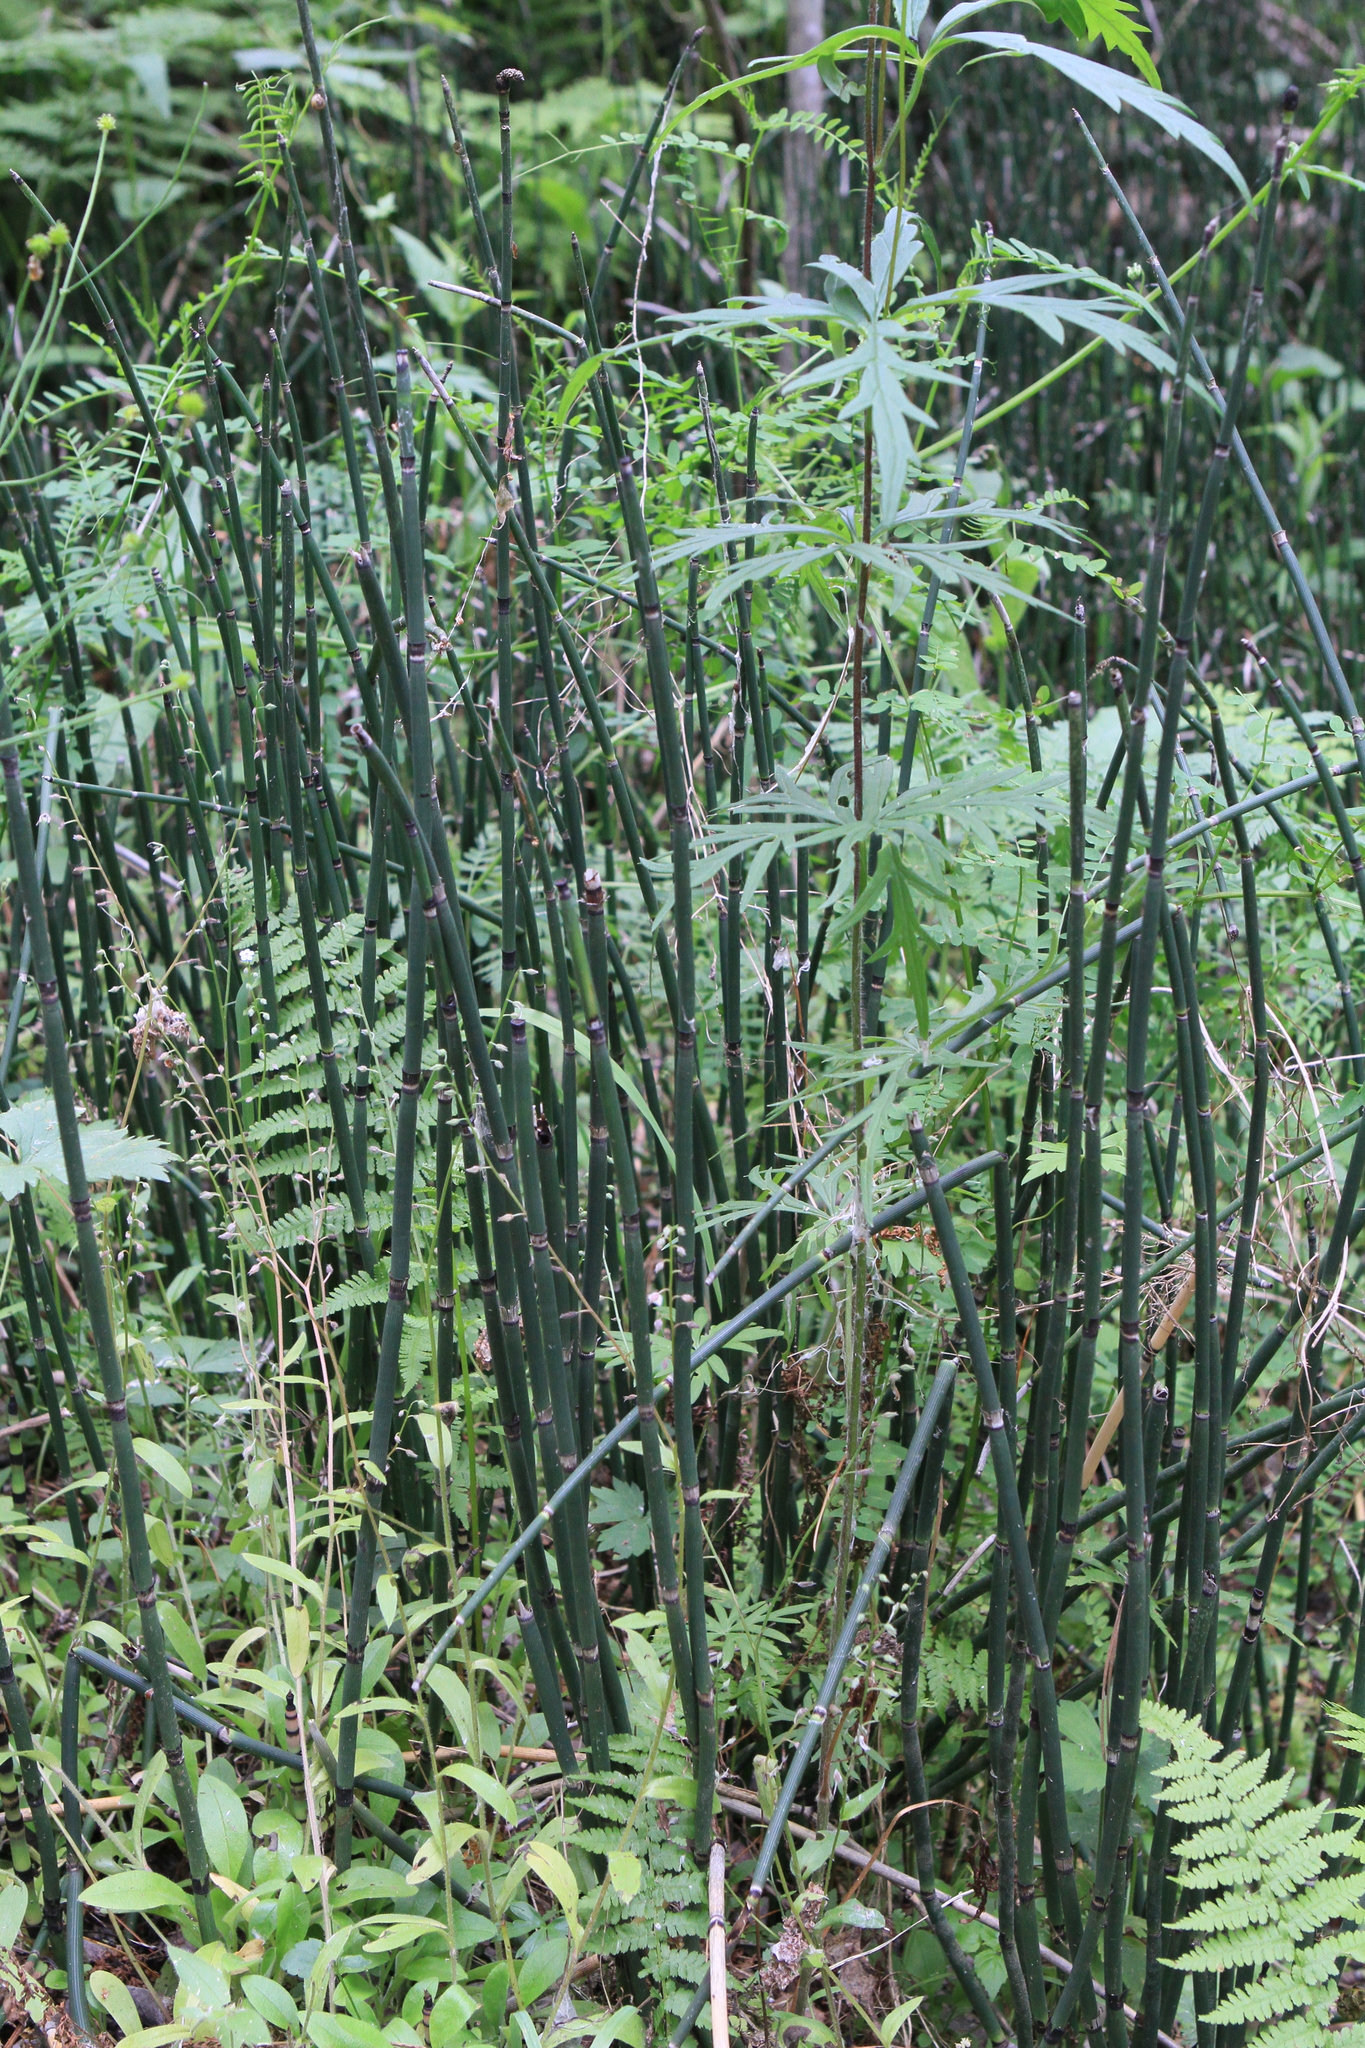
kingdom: Plantae
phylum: Tracheophyta
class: Polypodiopsida
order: Equisetales
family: Equisetaceae
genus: Equisetum
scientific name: Equisetum hyemale
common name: Rough horsetail
